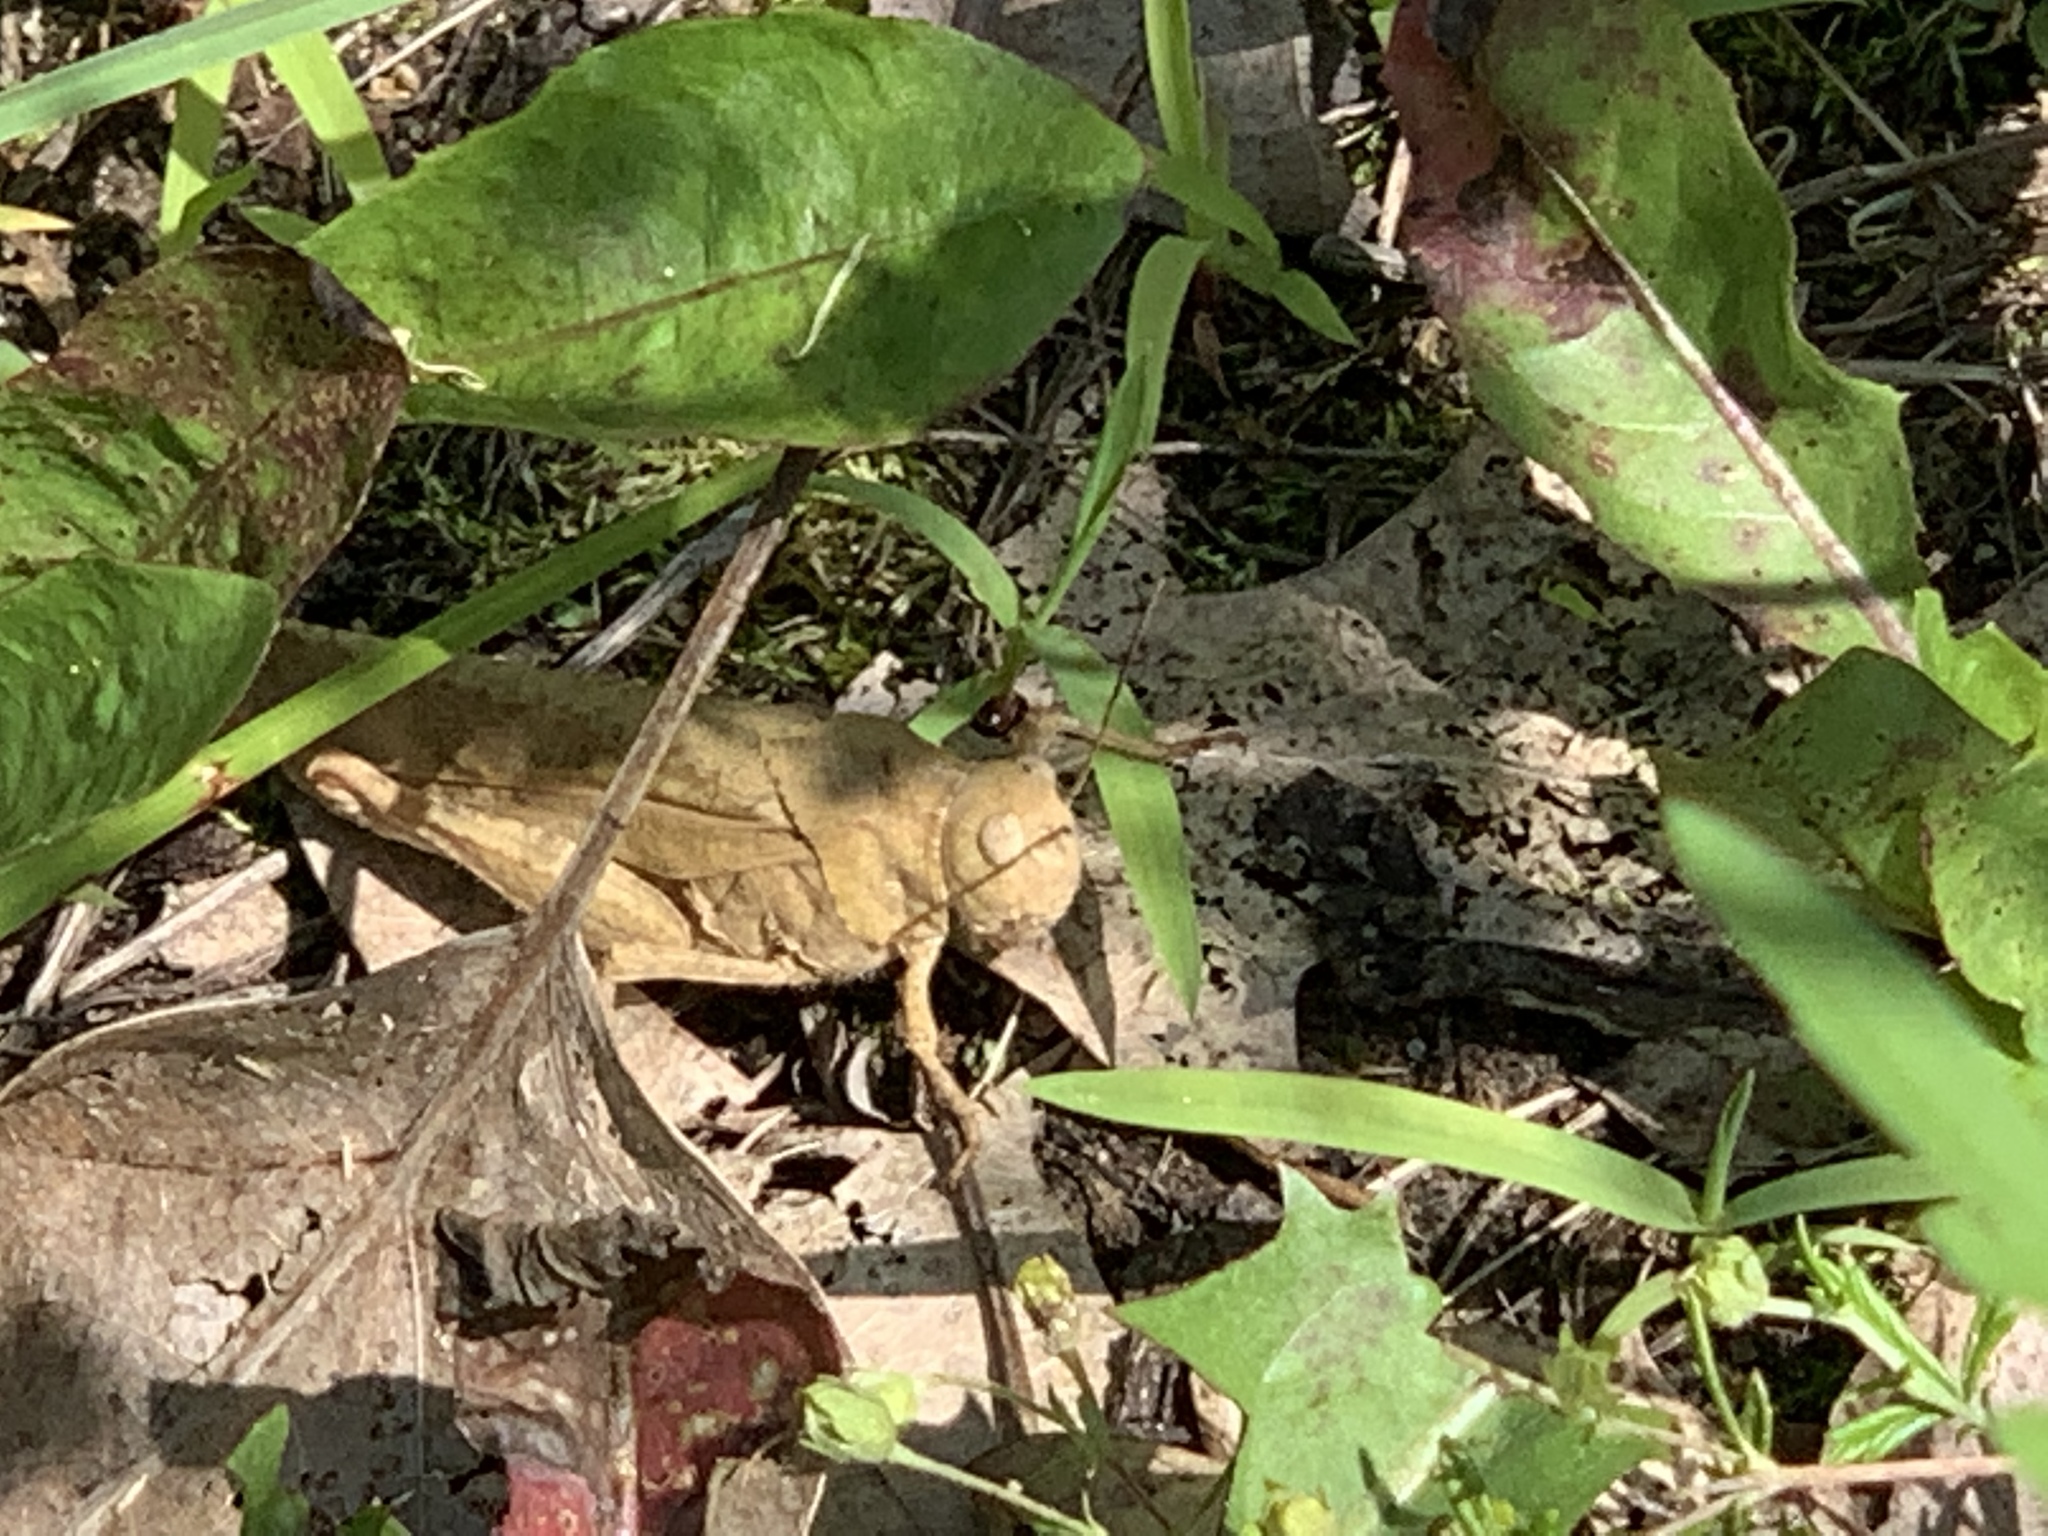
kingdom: Animalia
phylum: Arthropoda
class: Insecta
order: Orthoptera
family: Acrididae
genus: Dissosteira
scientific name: Dissosteira carolina
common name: Carolina grasshopper
